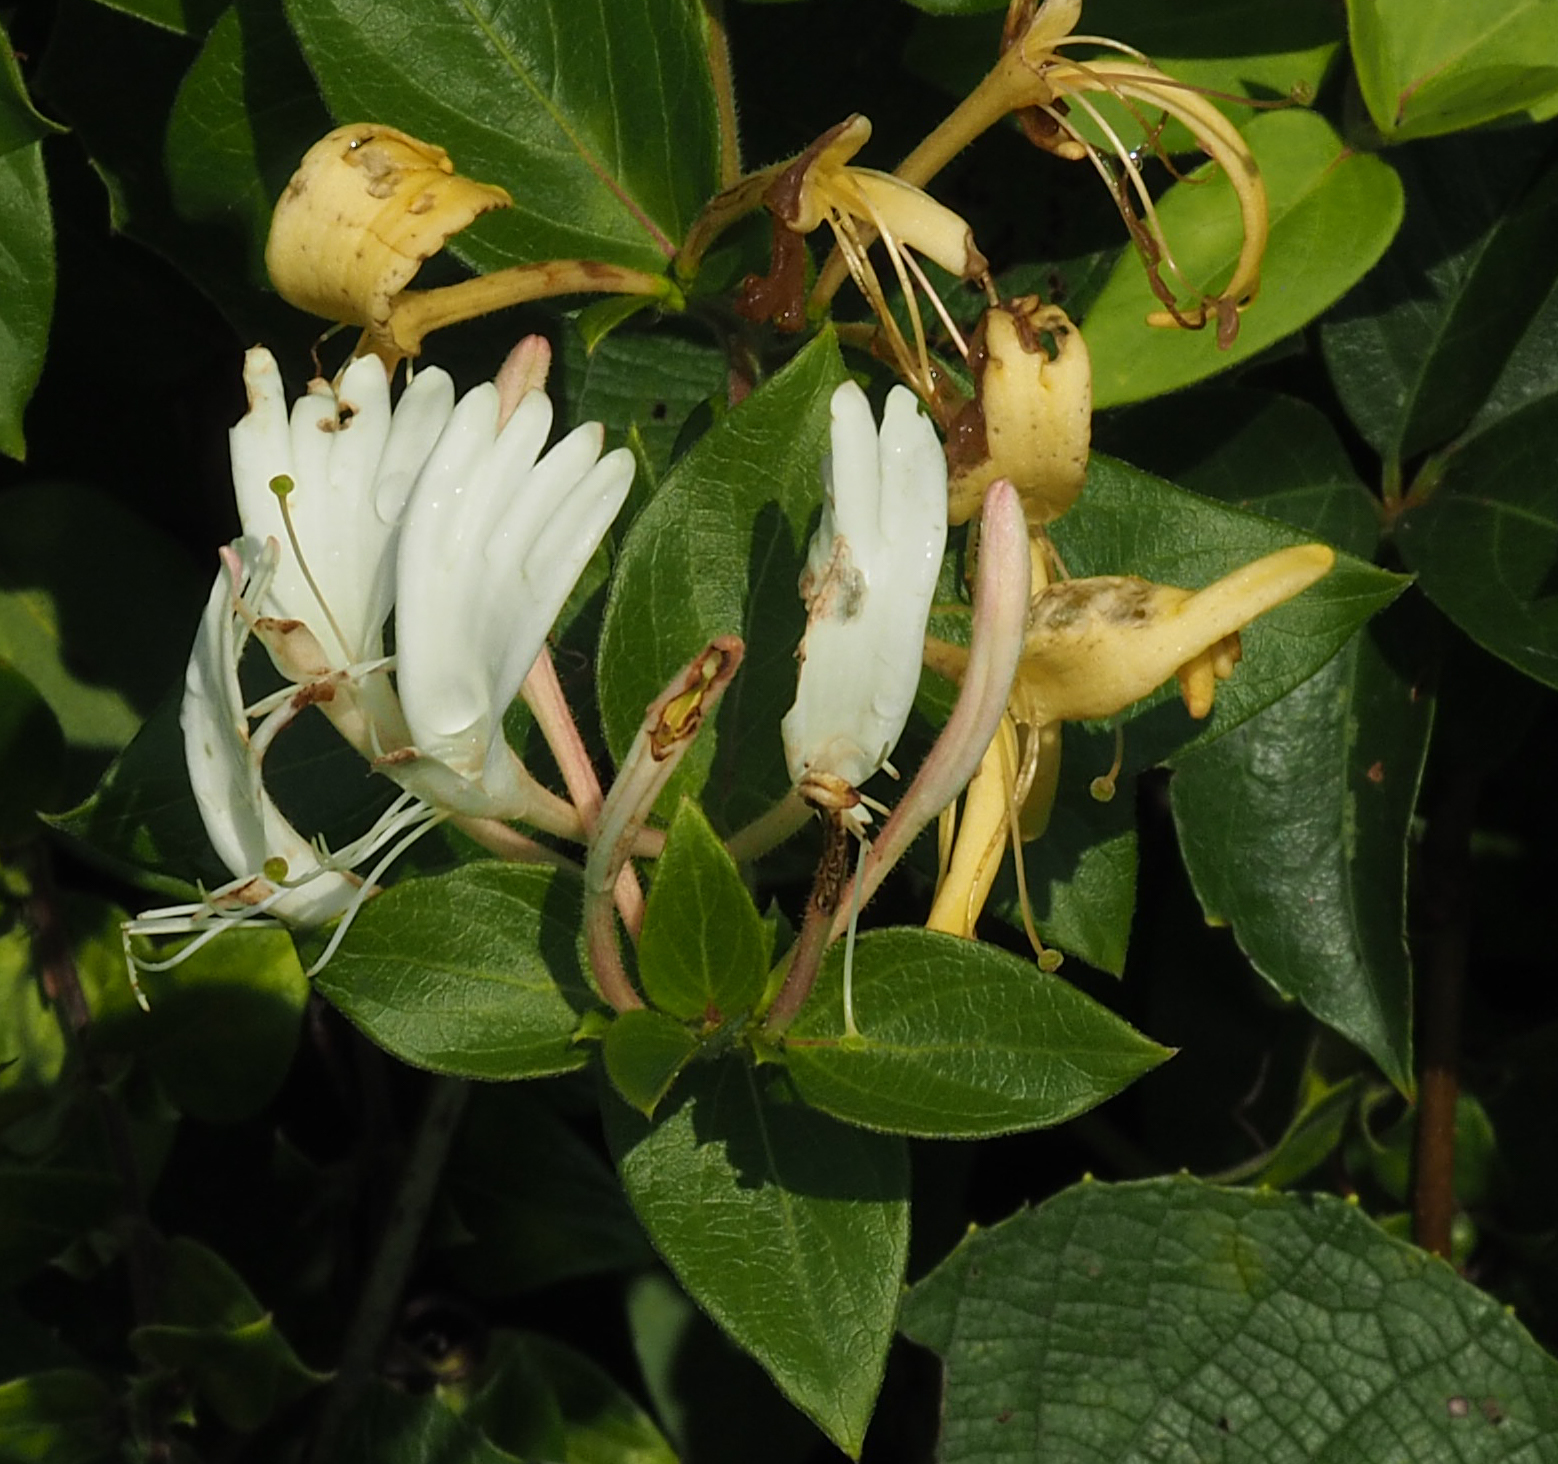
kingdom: Plantae
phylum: Tracheophyta
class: Magnoliopsida
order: Dipsacales
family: Caprifoliaceae
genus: Lonicera
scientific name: Lonicera japonica
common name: Japanese honeysuckle
